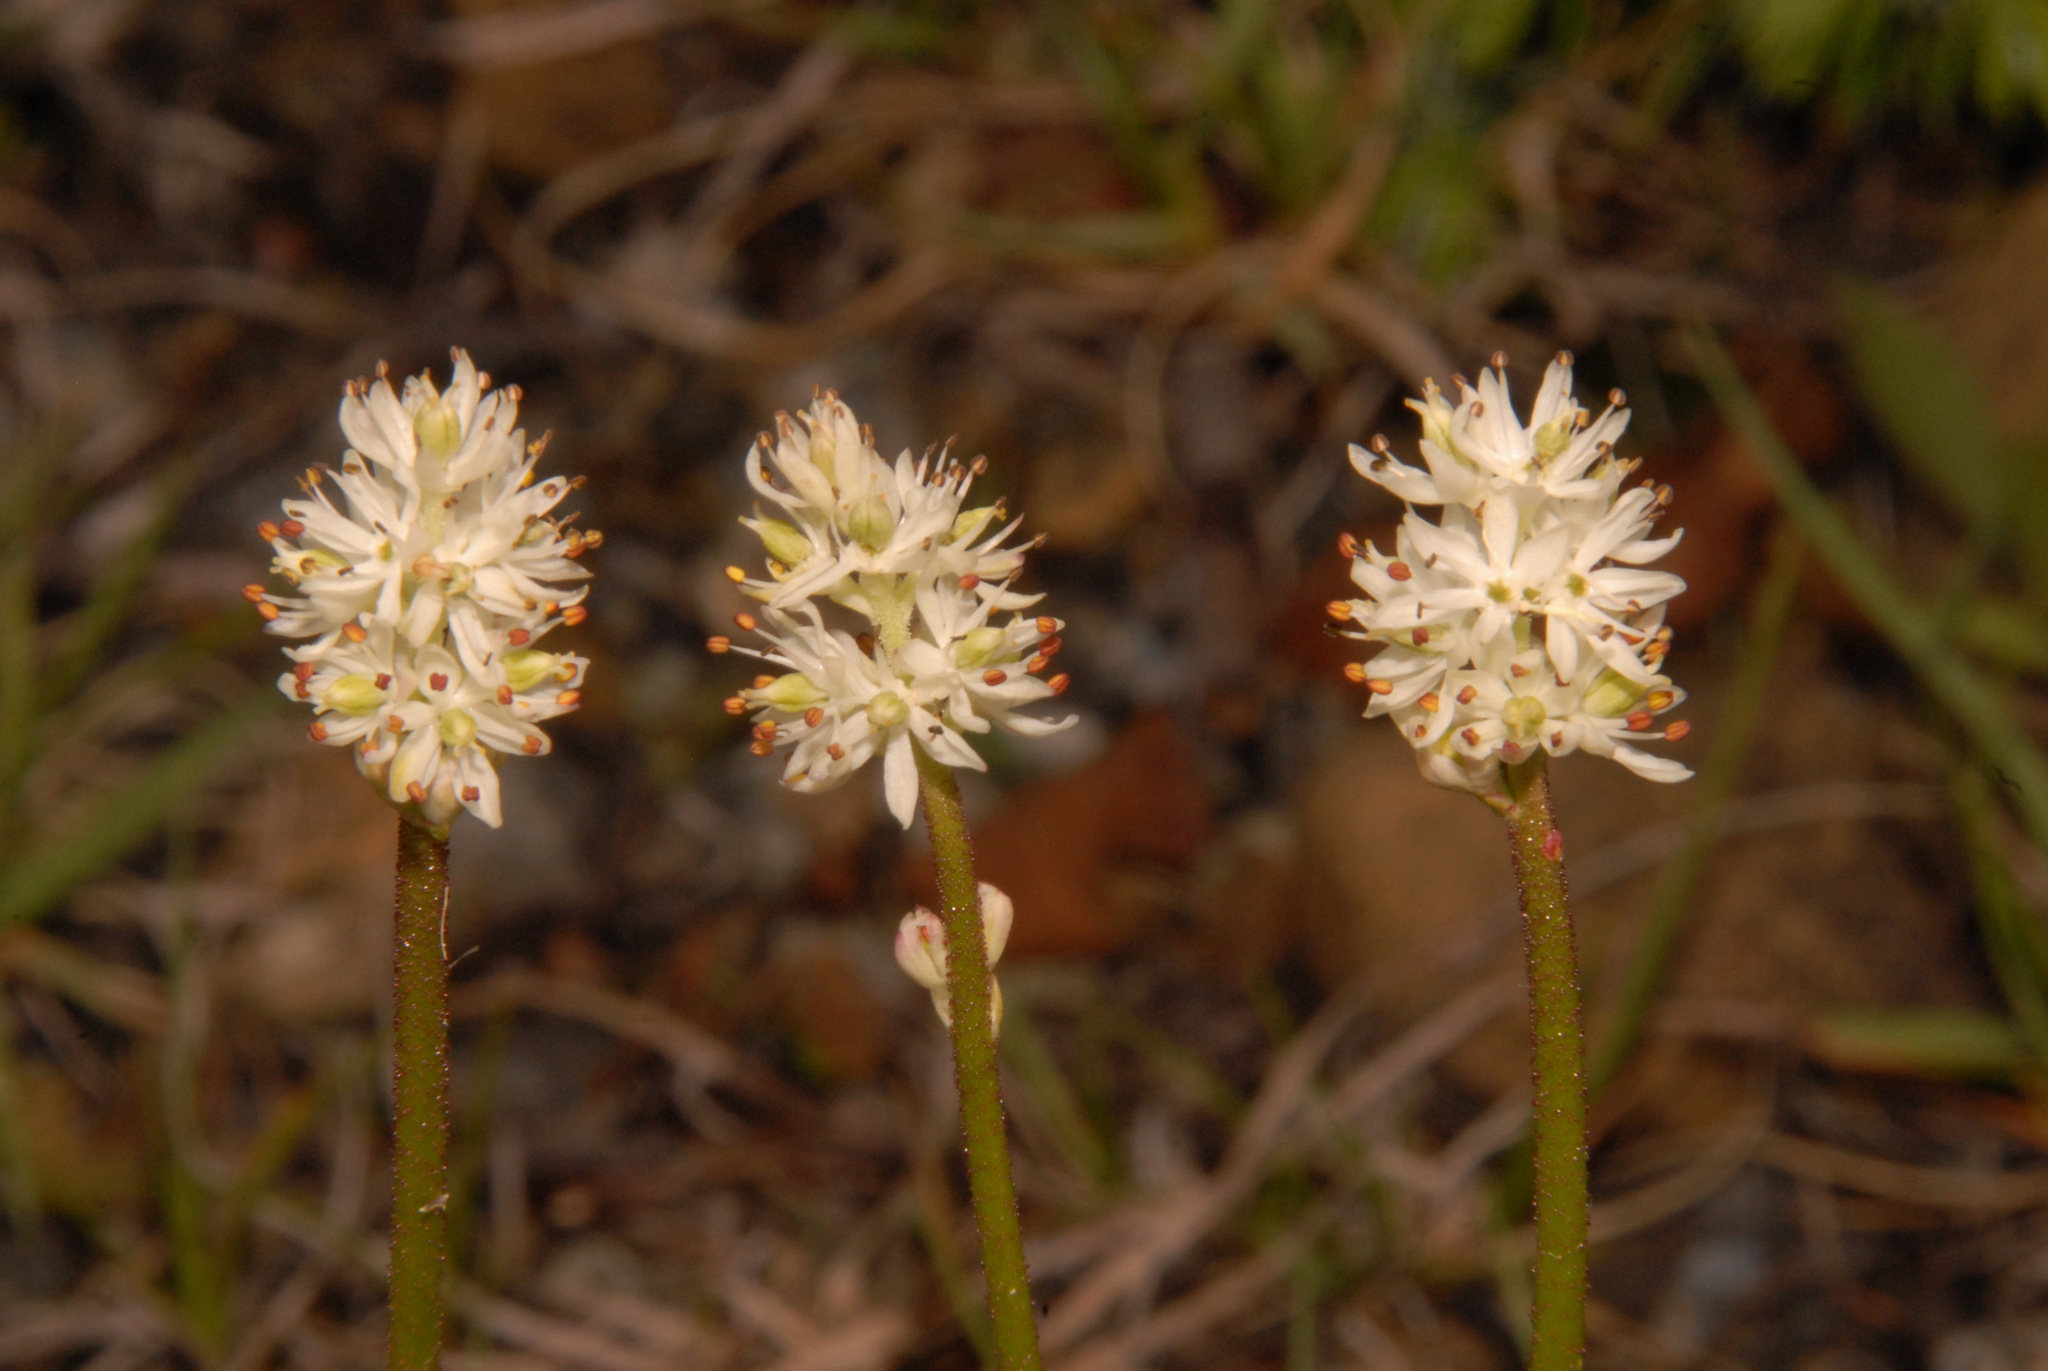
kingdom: Plantae
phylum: Tracheophyta
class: Liliopsida
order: Alismatales
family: Tofieldiaceae
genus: Triantha
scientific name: Triantha glutinosa
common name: Glutinous tofieldia
